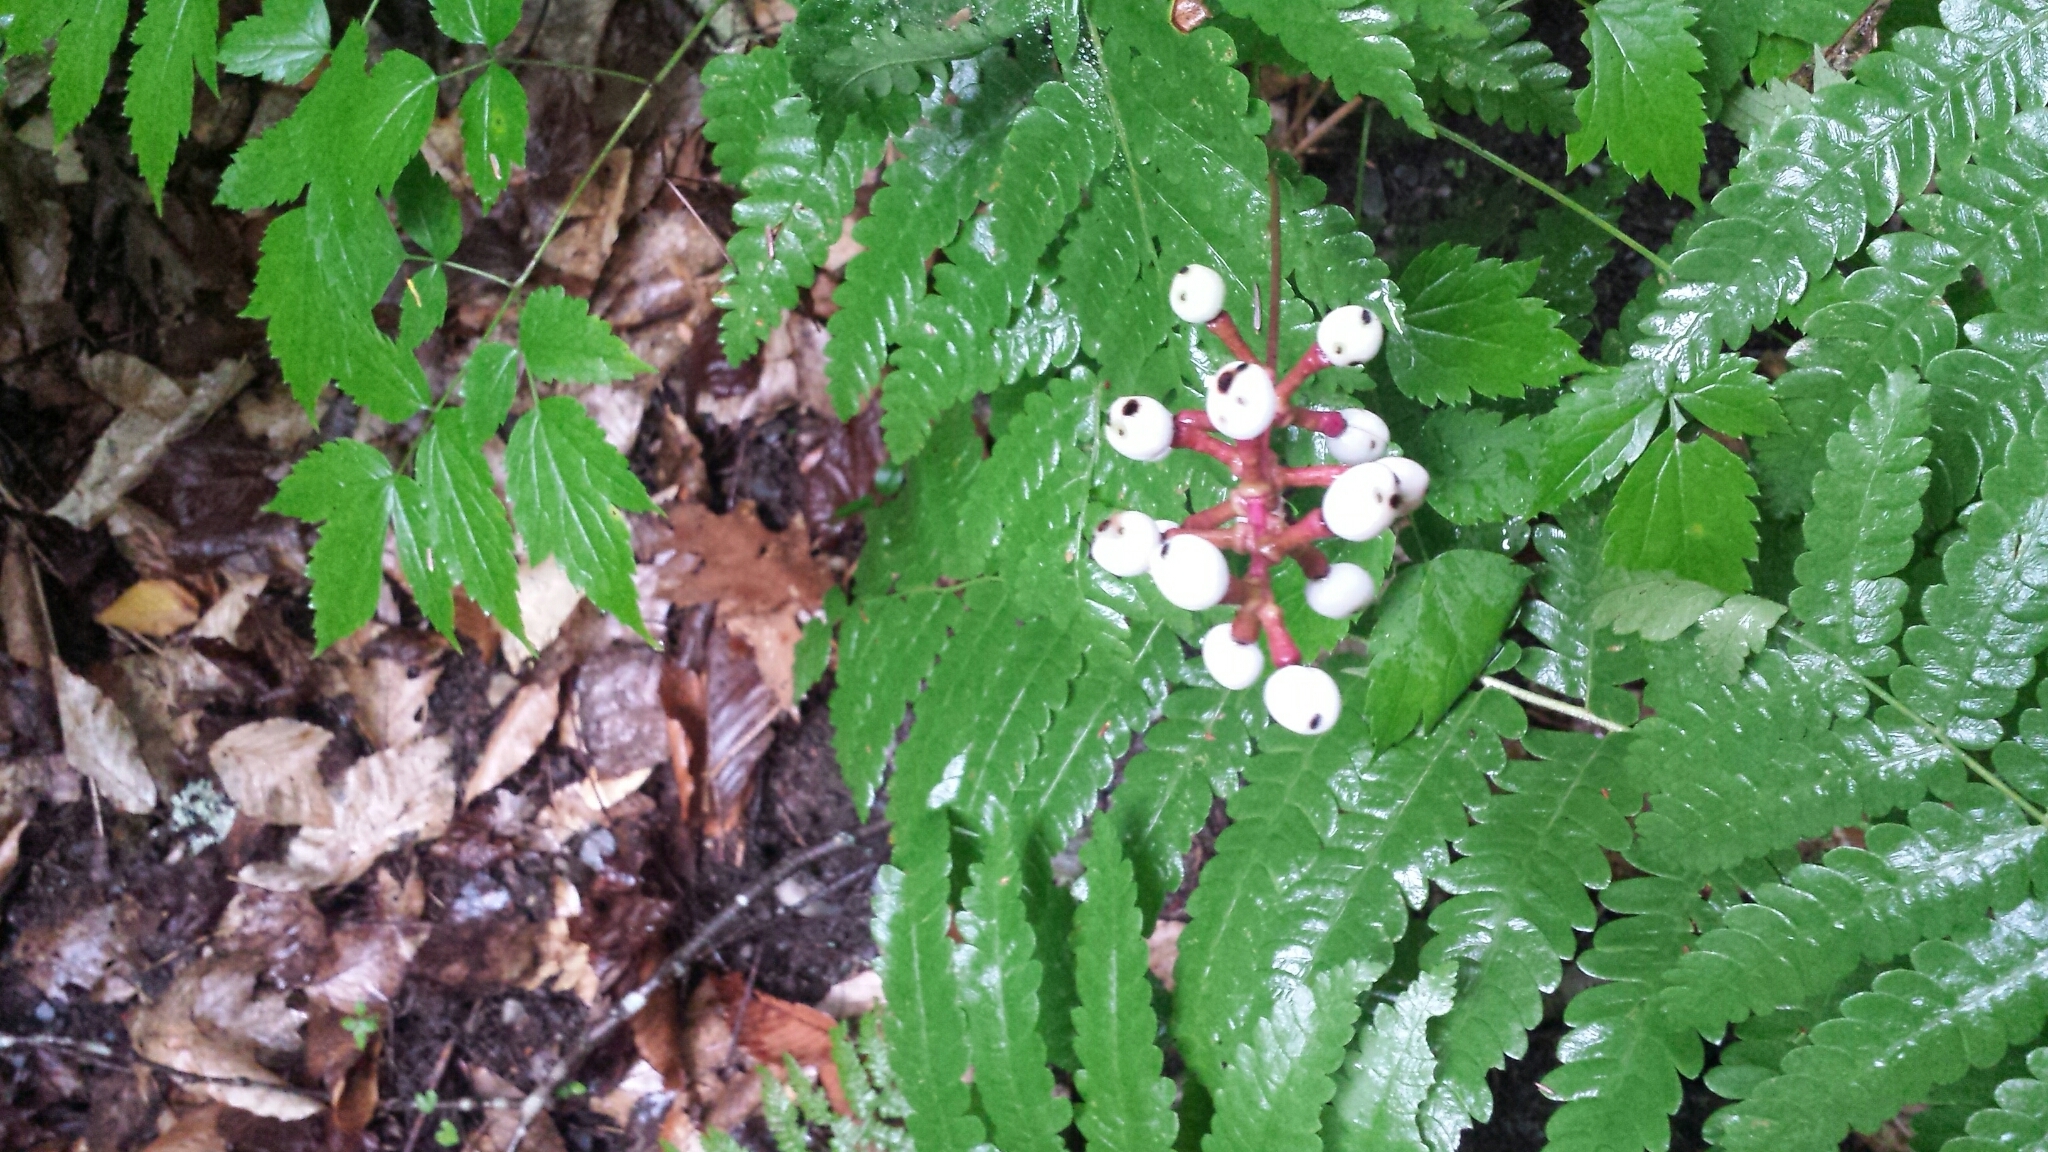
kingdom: Plantae
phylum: Tracheophyta
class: Magnoliopsida
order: Ranunculales
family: Ranunculaceae
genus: Actaea
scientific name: Actaea pachypoda
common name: Doll's-eyes
